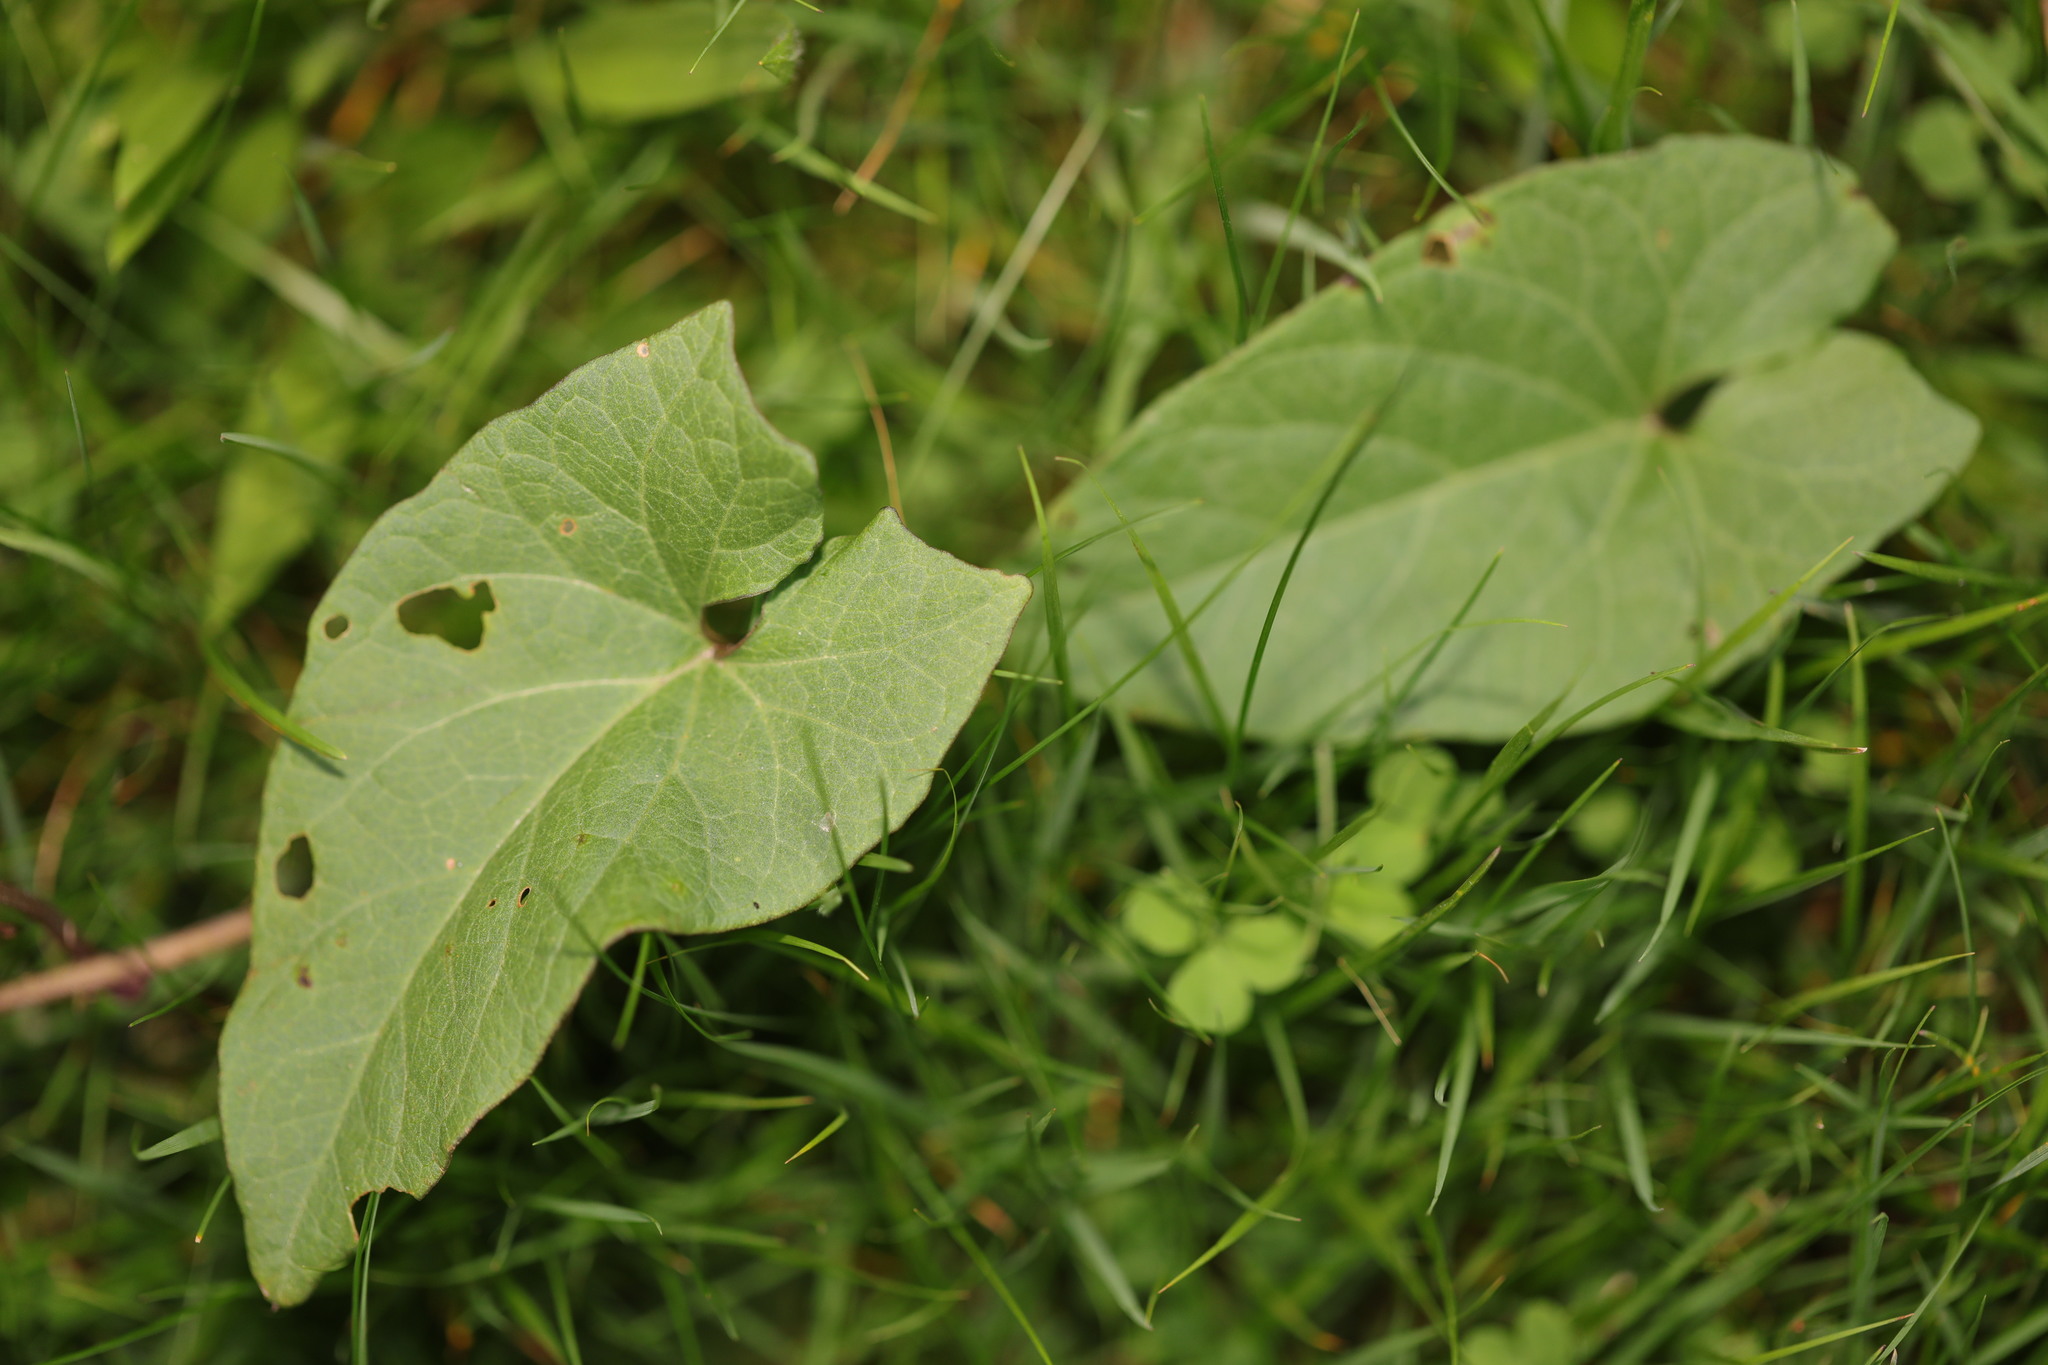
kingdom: Plantae
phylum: Tracheophyta
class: Magnoliopsida
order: Solanales
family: Convolvulaceae
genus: Calystegia
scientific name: Calystegia
